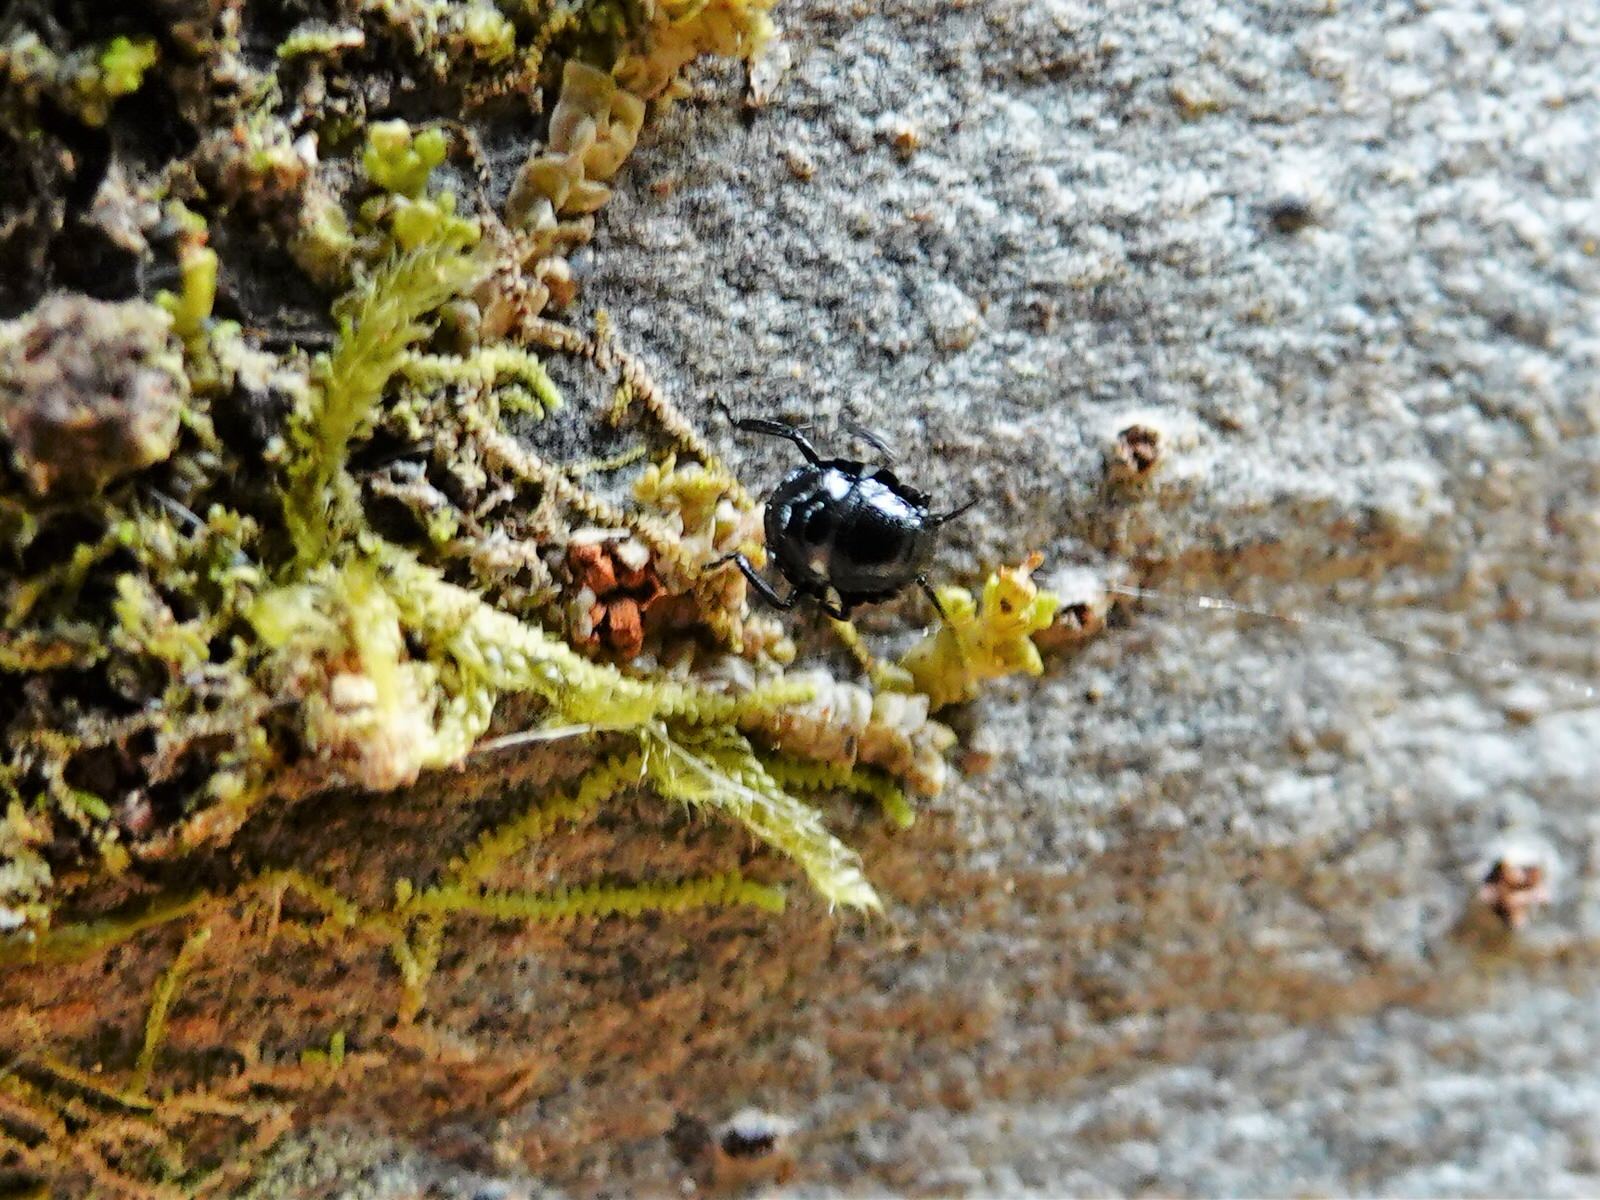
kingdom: Animalia
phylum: Arthropoda
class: Insecta
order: Hemiptera
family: Pentatomidae
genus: Glaucias
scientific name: Glaucias amyota
